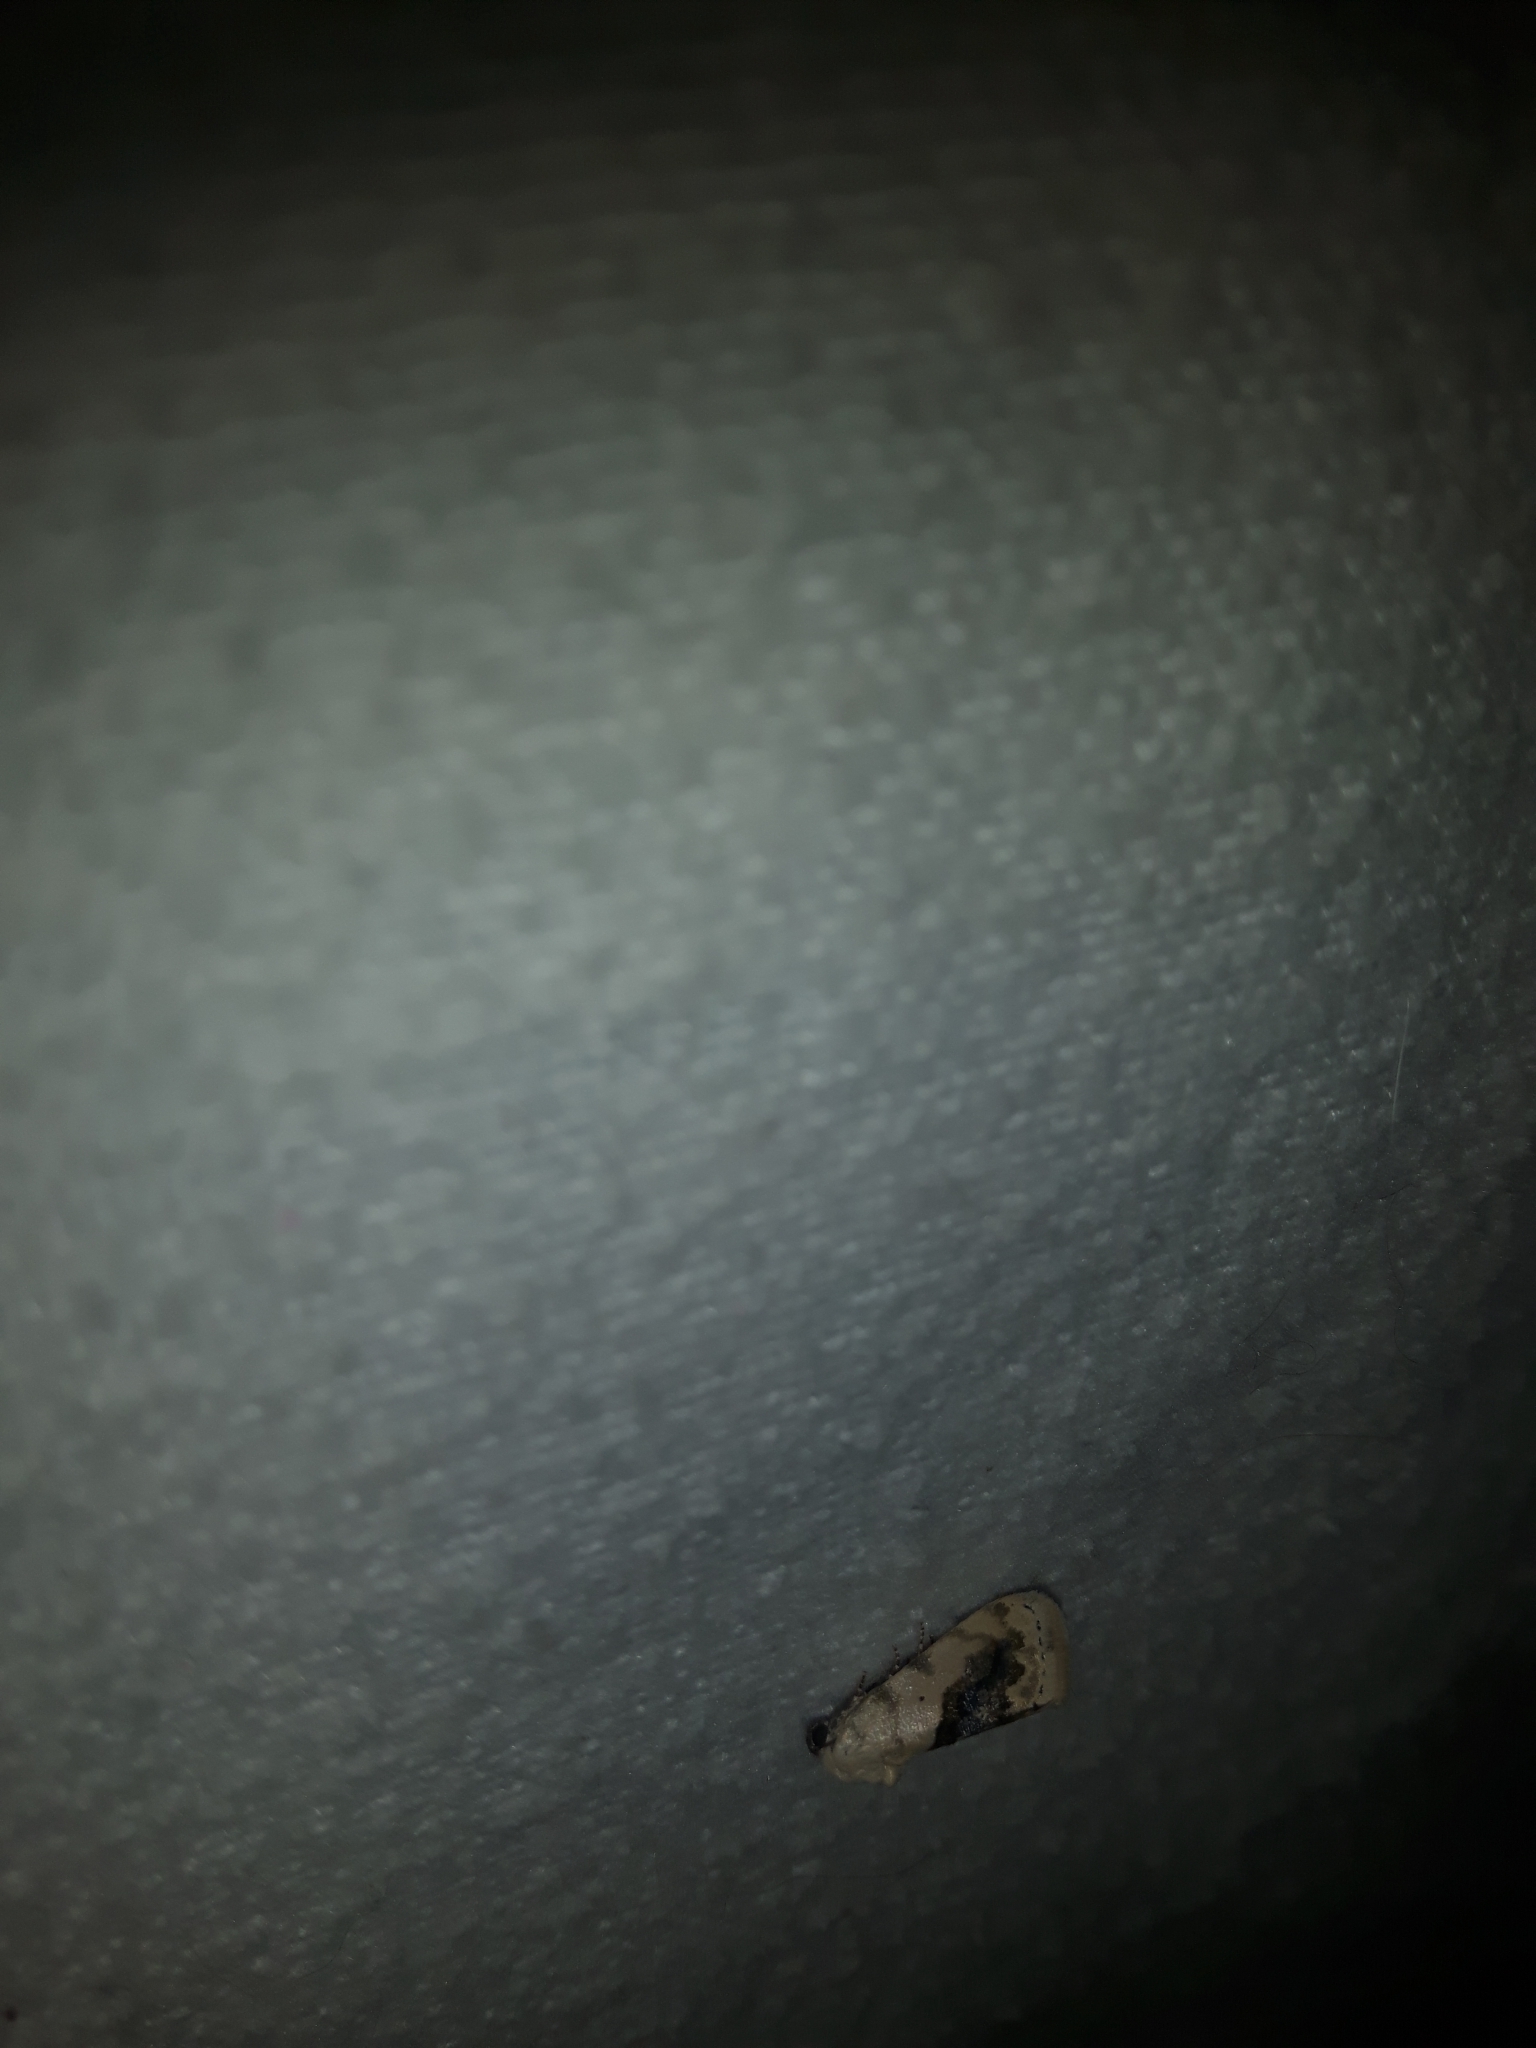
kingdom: Animalia
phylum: Arthropoda
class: Insecta
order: Lepidoptera
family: Noctuidae
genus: Acontia
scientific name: Acontia erastrioides
